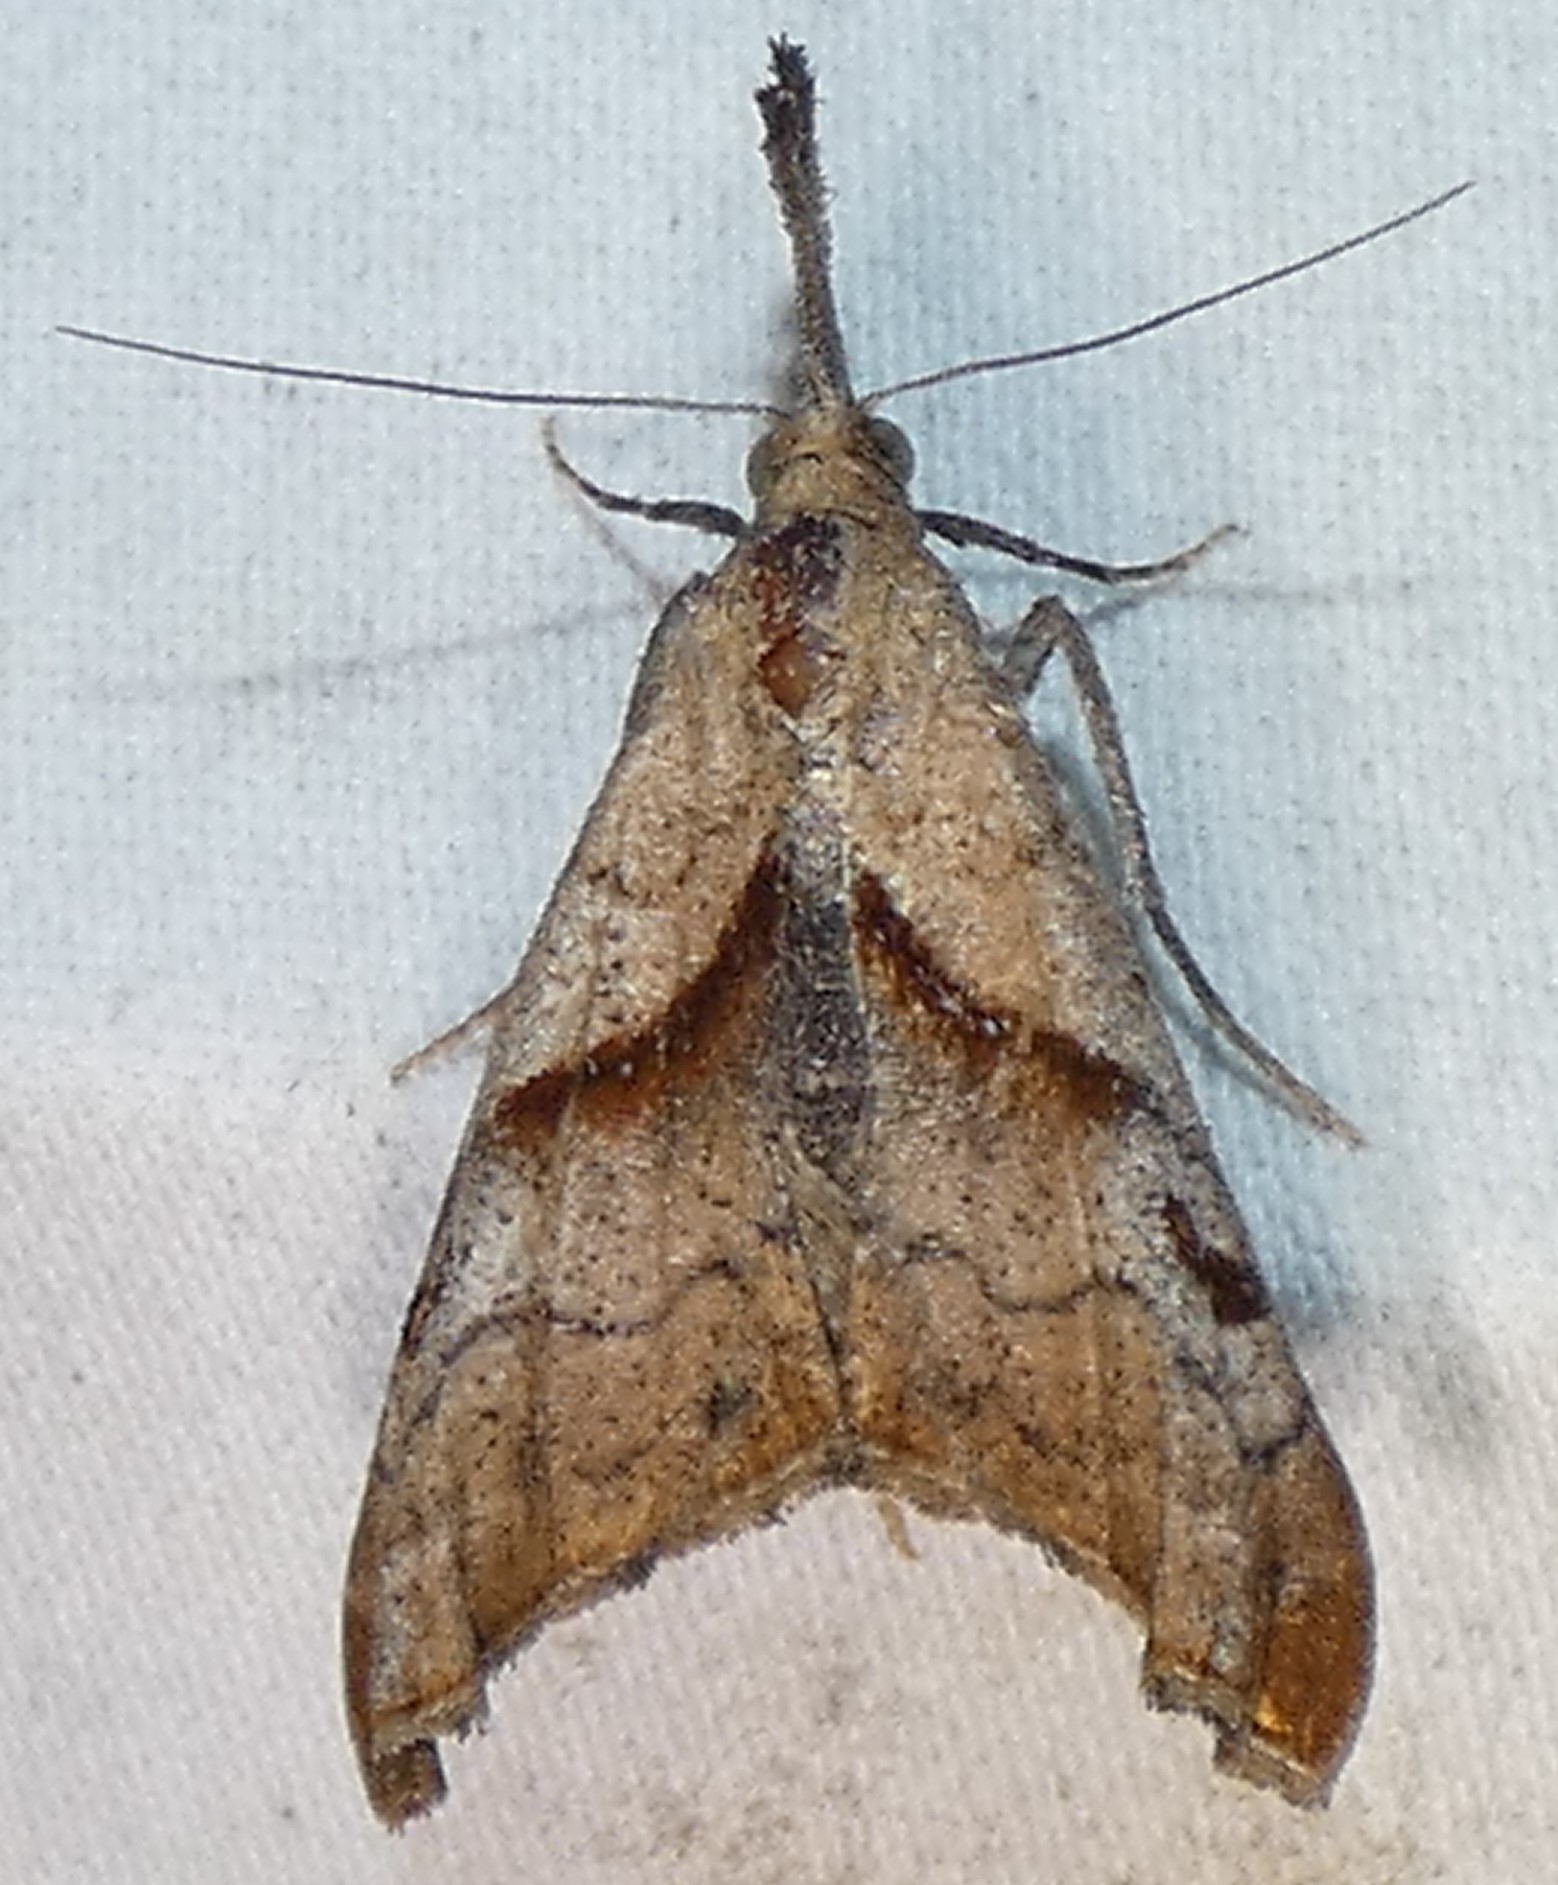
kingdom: Animalia
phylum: Arthropoda
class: Insecta
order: Lepidoptera
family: Erebidae
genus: Palthis
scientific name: Palthis angulalis
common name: Dark-spotted palthis moth
